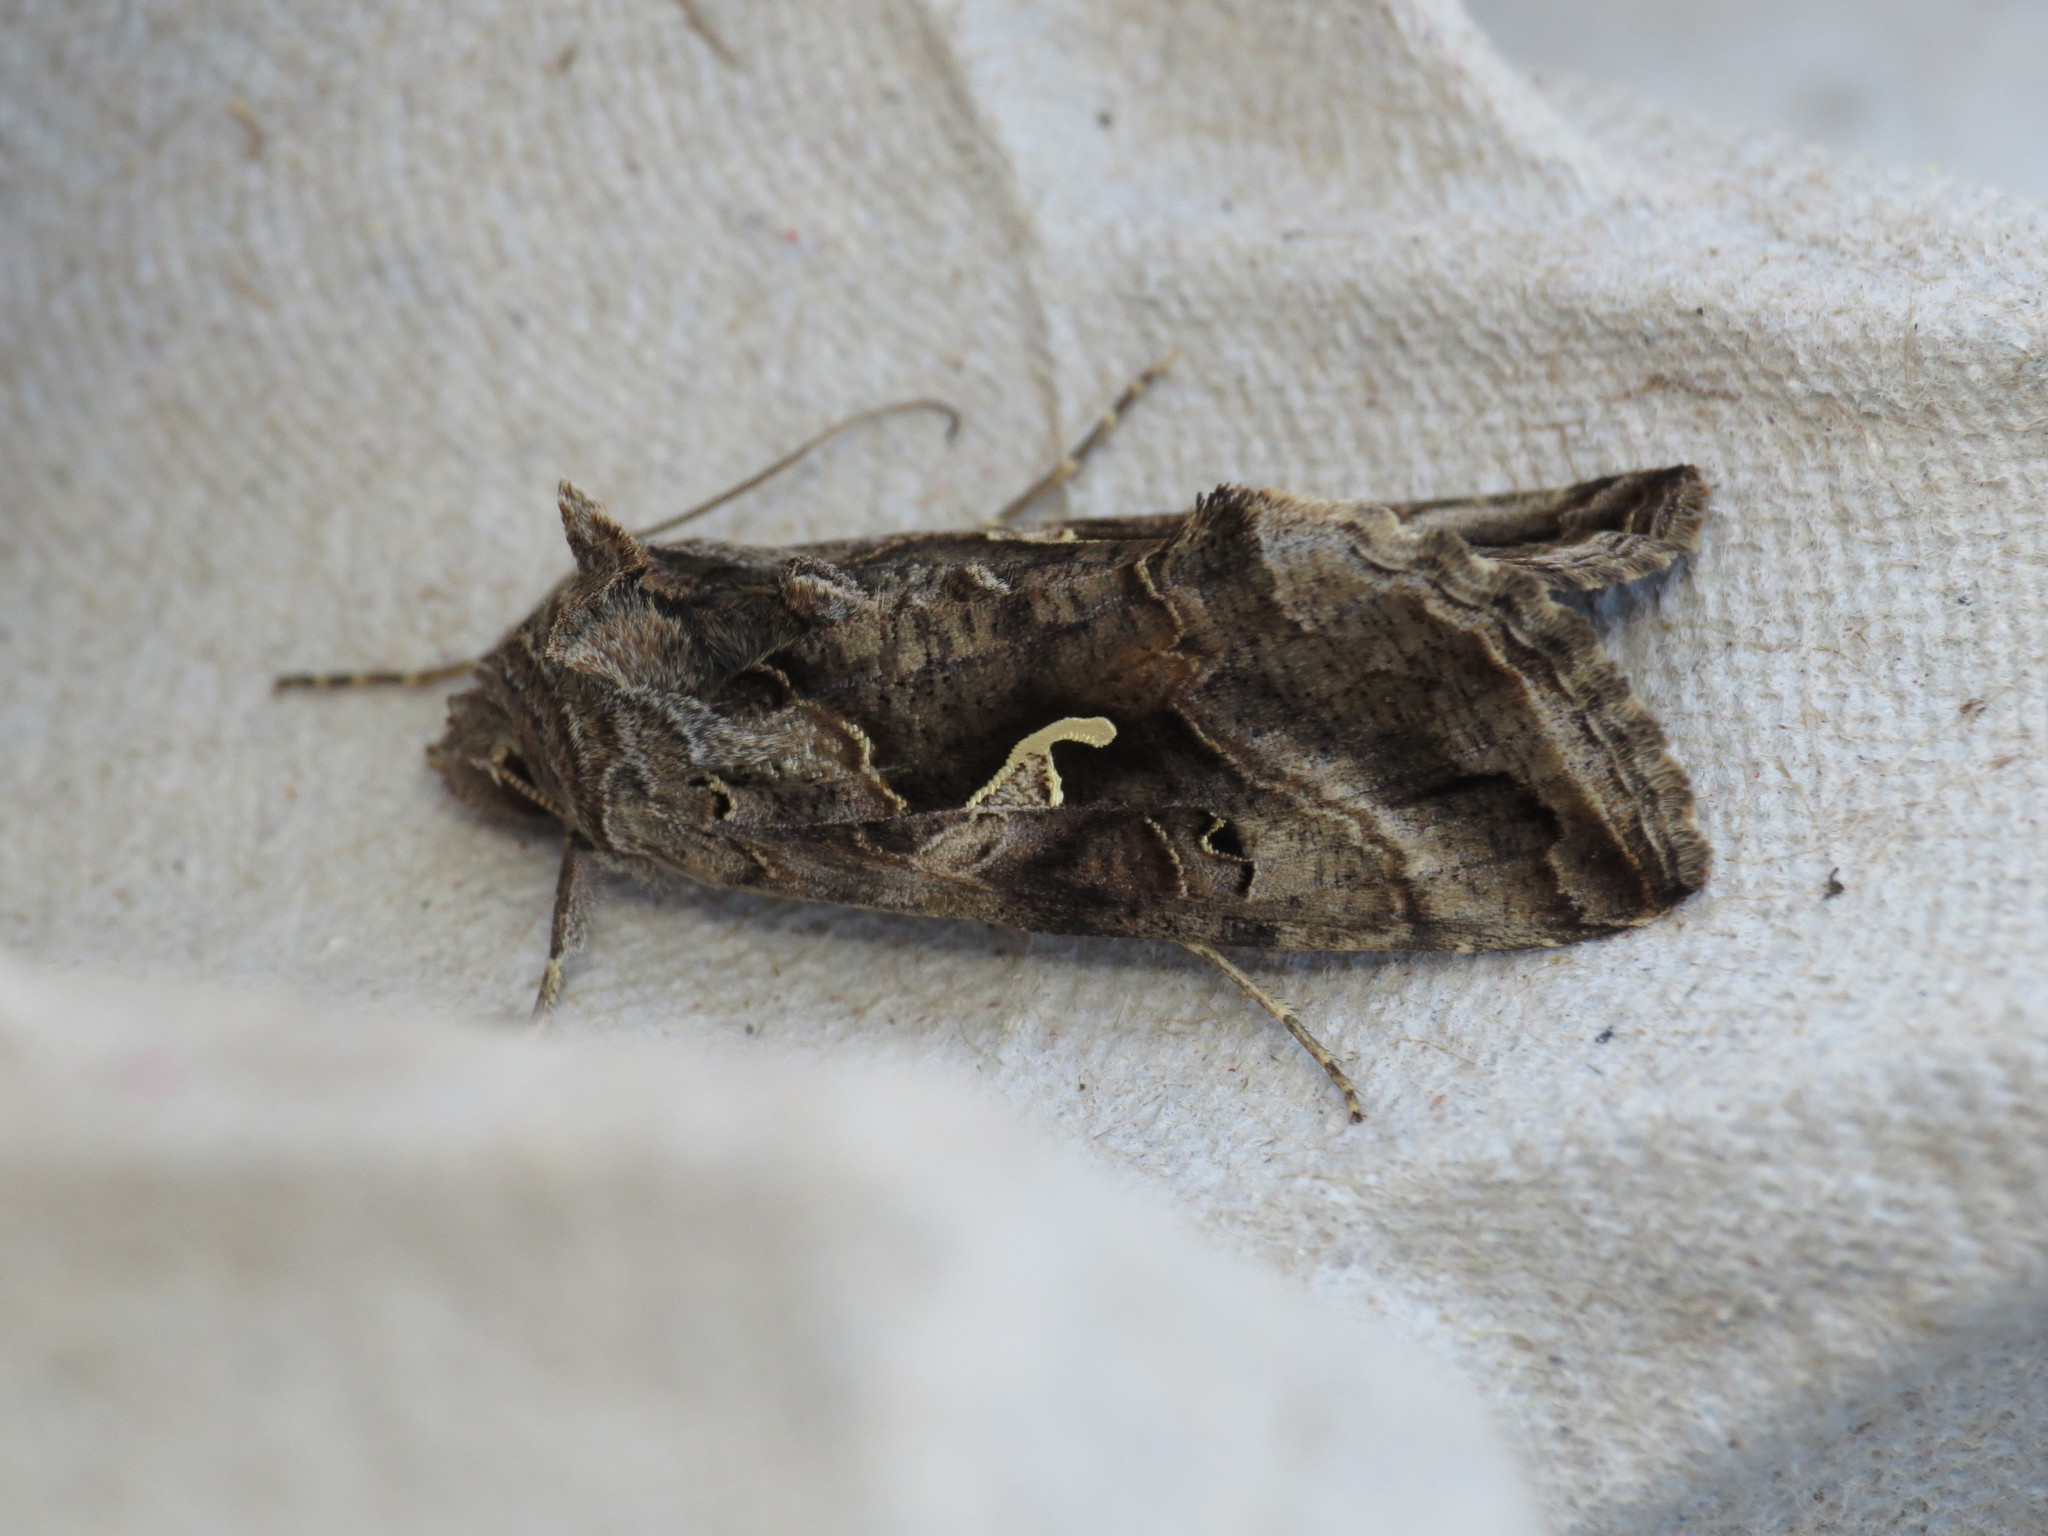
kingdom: Animalia
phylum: Arthropoda
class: Insecta
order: Lepidoptera
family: Noctuidae
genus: Autographa
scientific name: Autographa gamma
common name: Silver y
